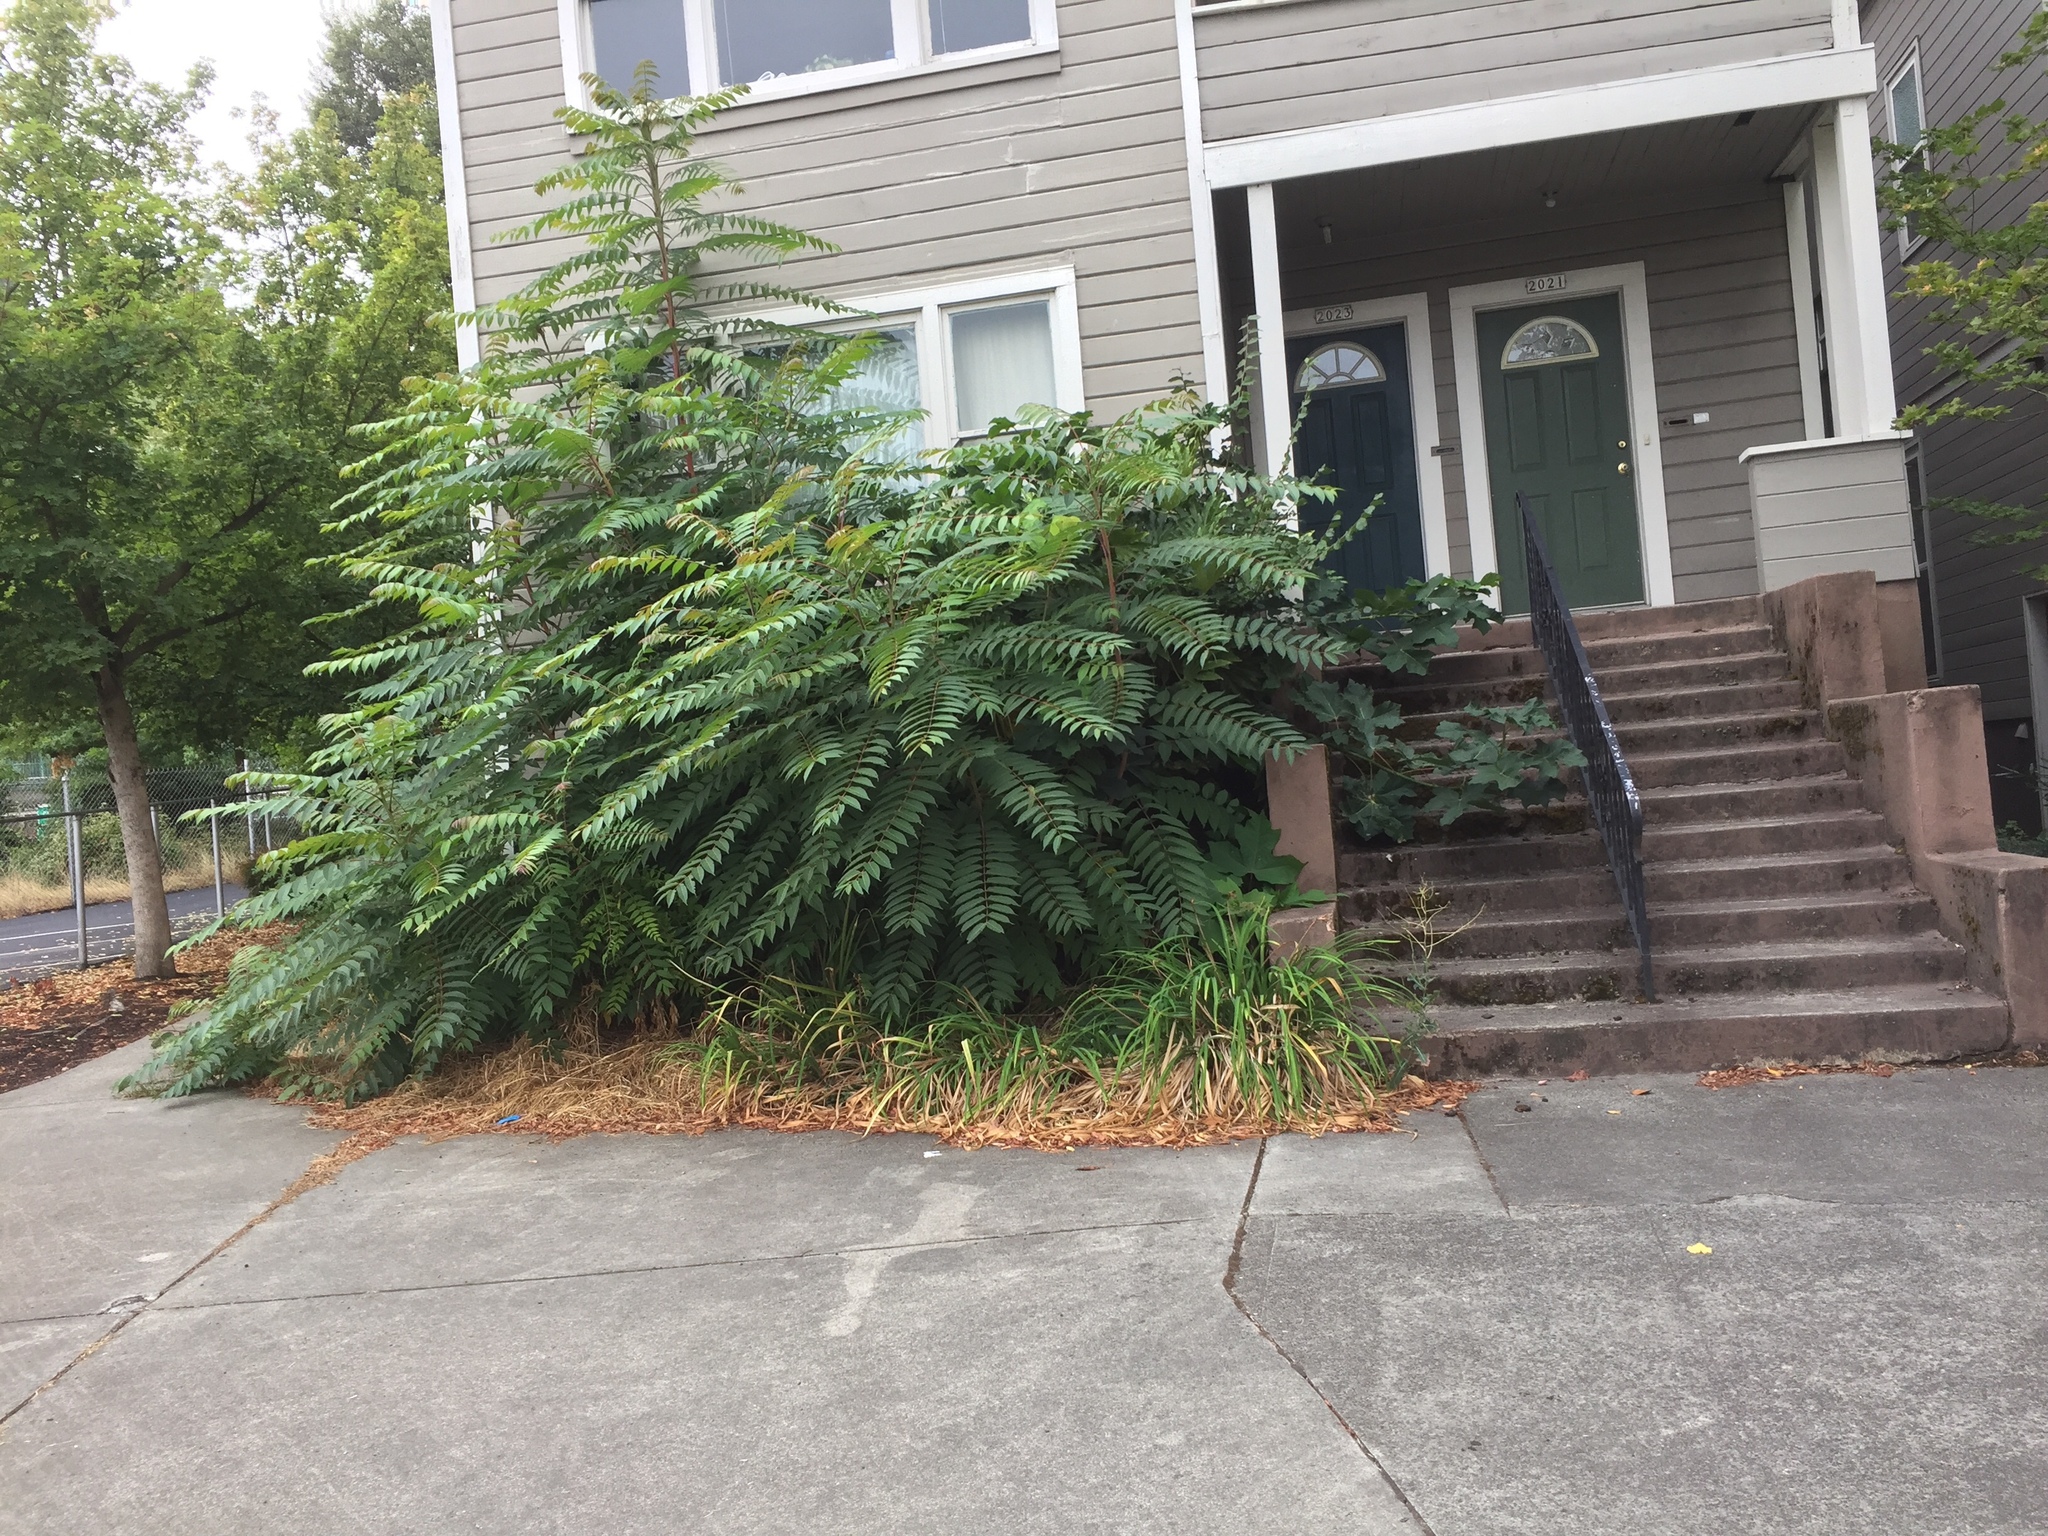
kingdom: Plantae
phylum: Tracheophyta
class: Magnoliopsida
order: Sapindales
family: Simaroubaceae
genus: Ailanthus
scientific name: Ailanthus altissima
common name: Tree-of-heaven
